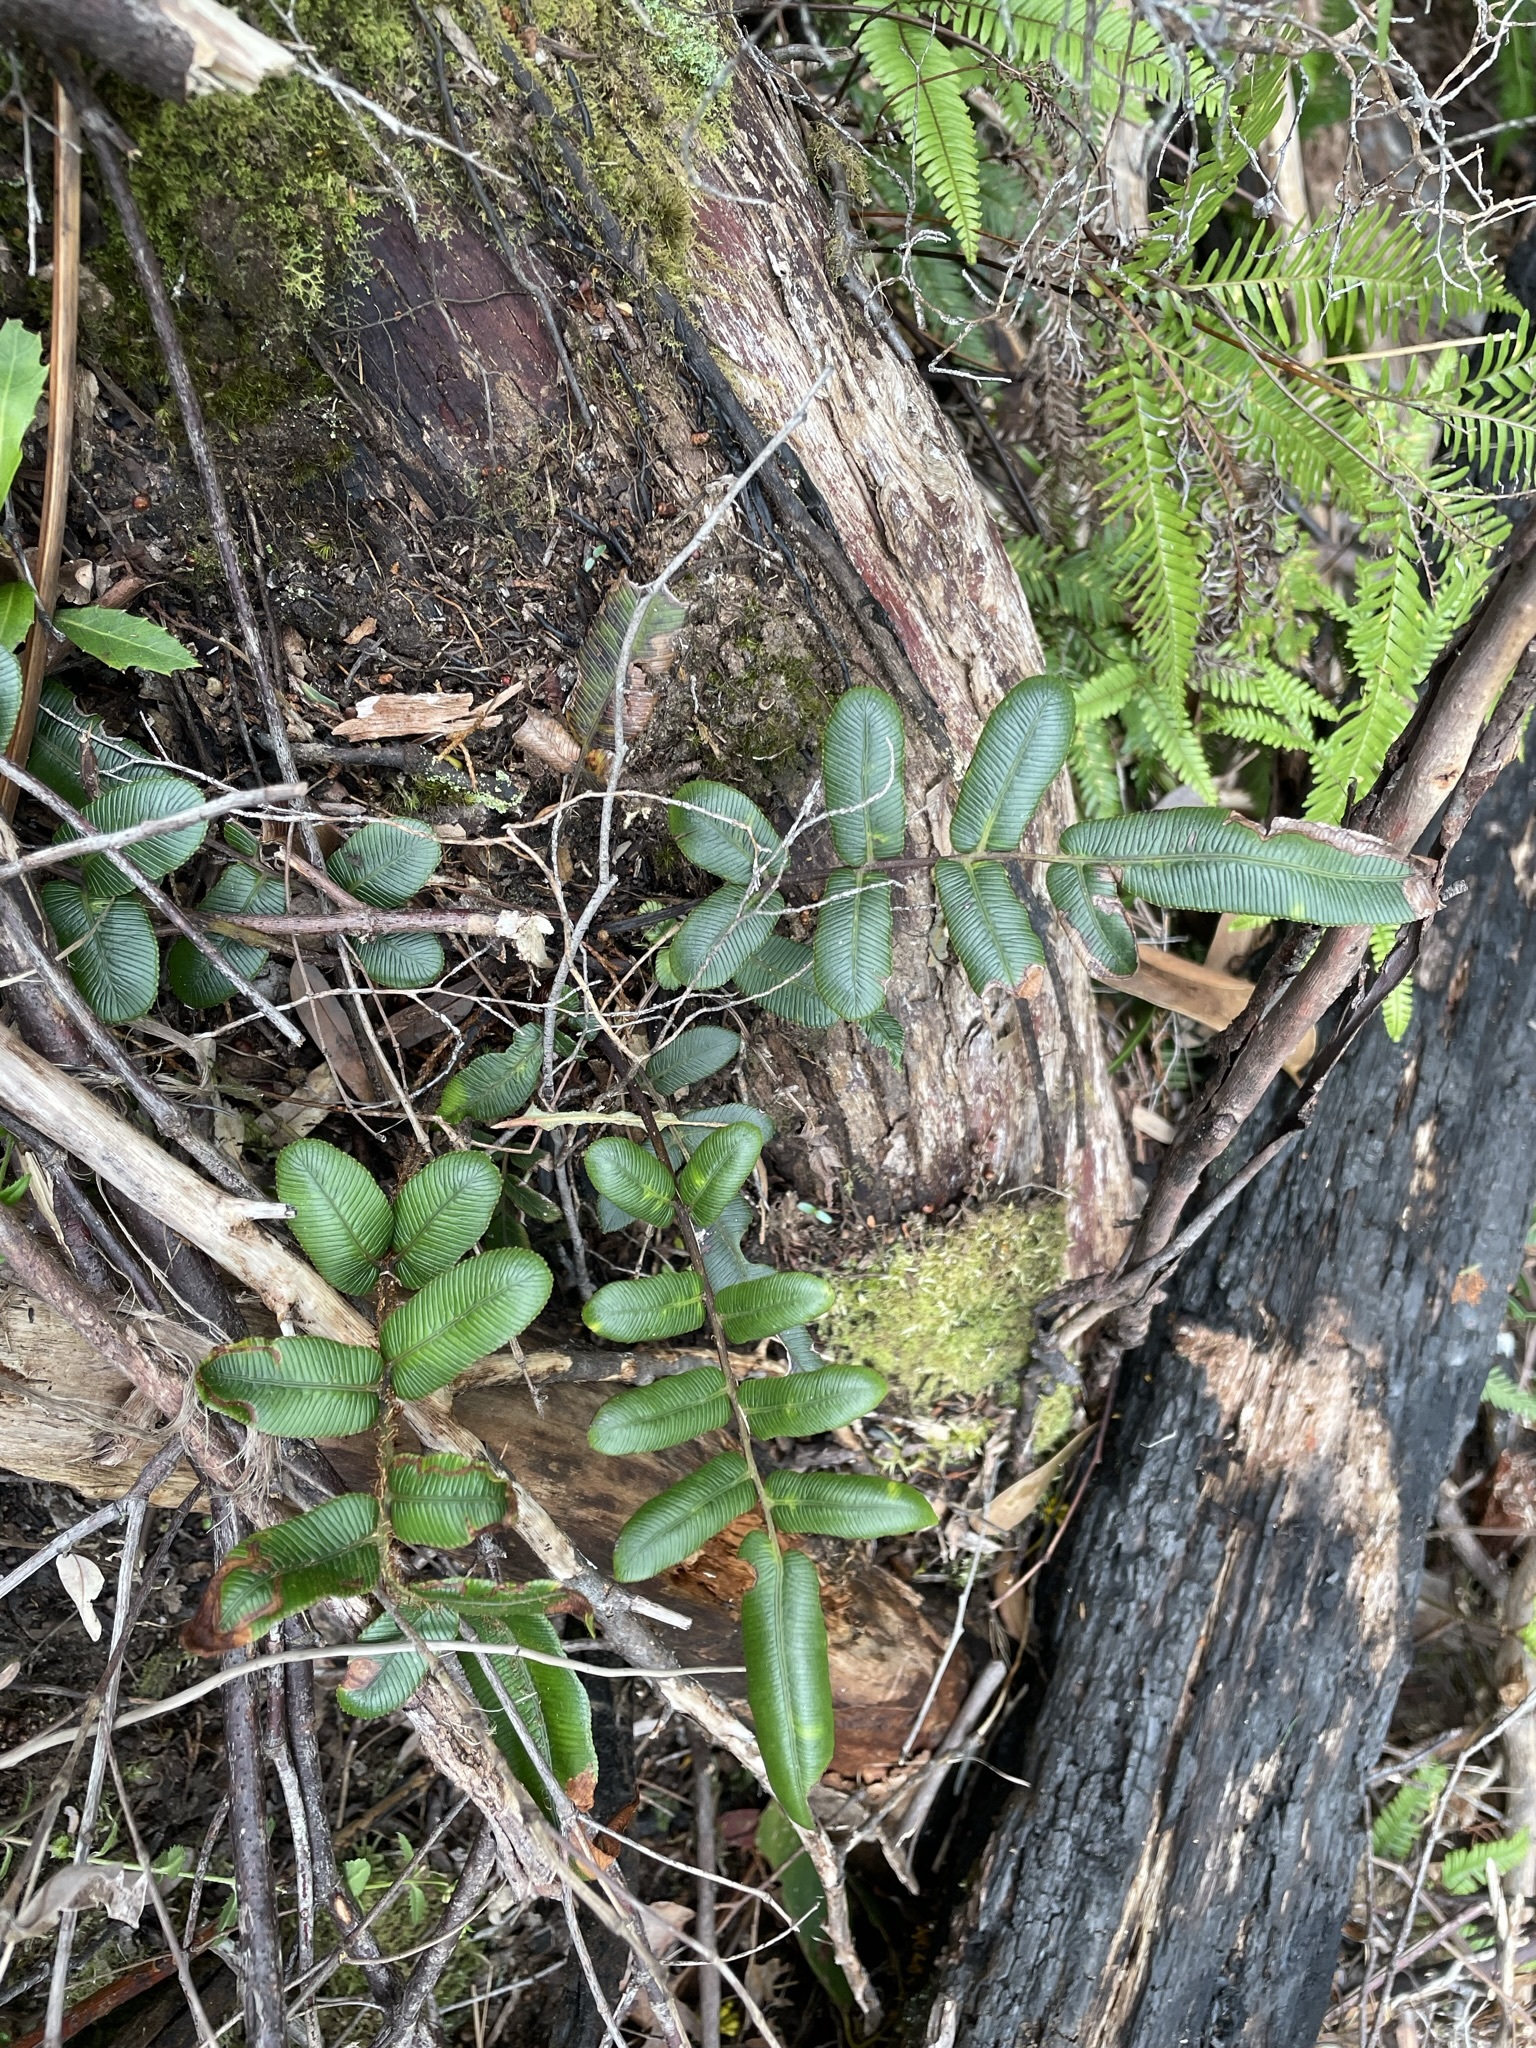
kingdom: Plantae
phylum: Tracheophyta
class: Polypodiopsida
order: Polypodiales
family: Blechnaceae
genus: Parablechnum
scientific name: Parablechnum wattsii
